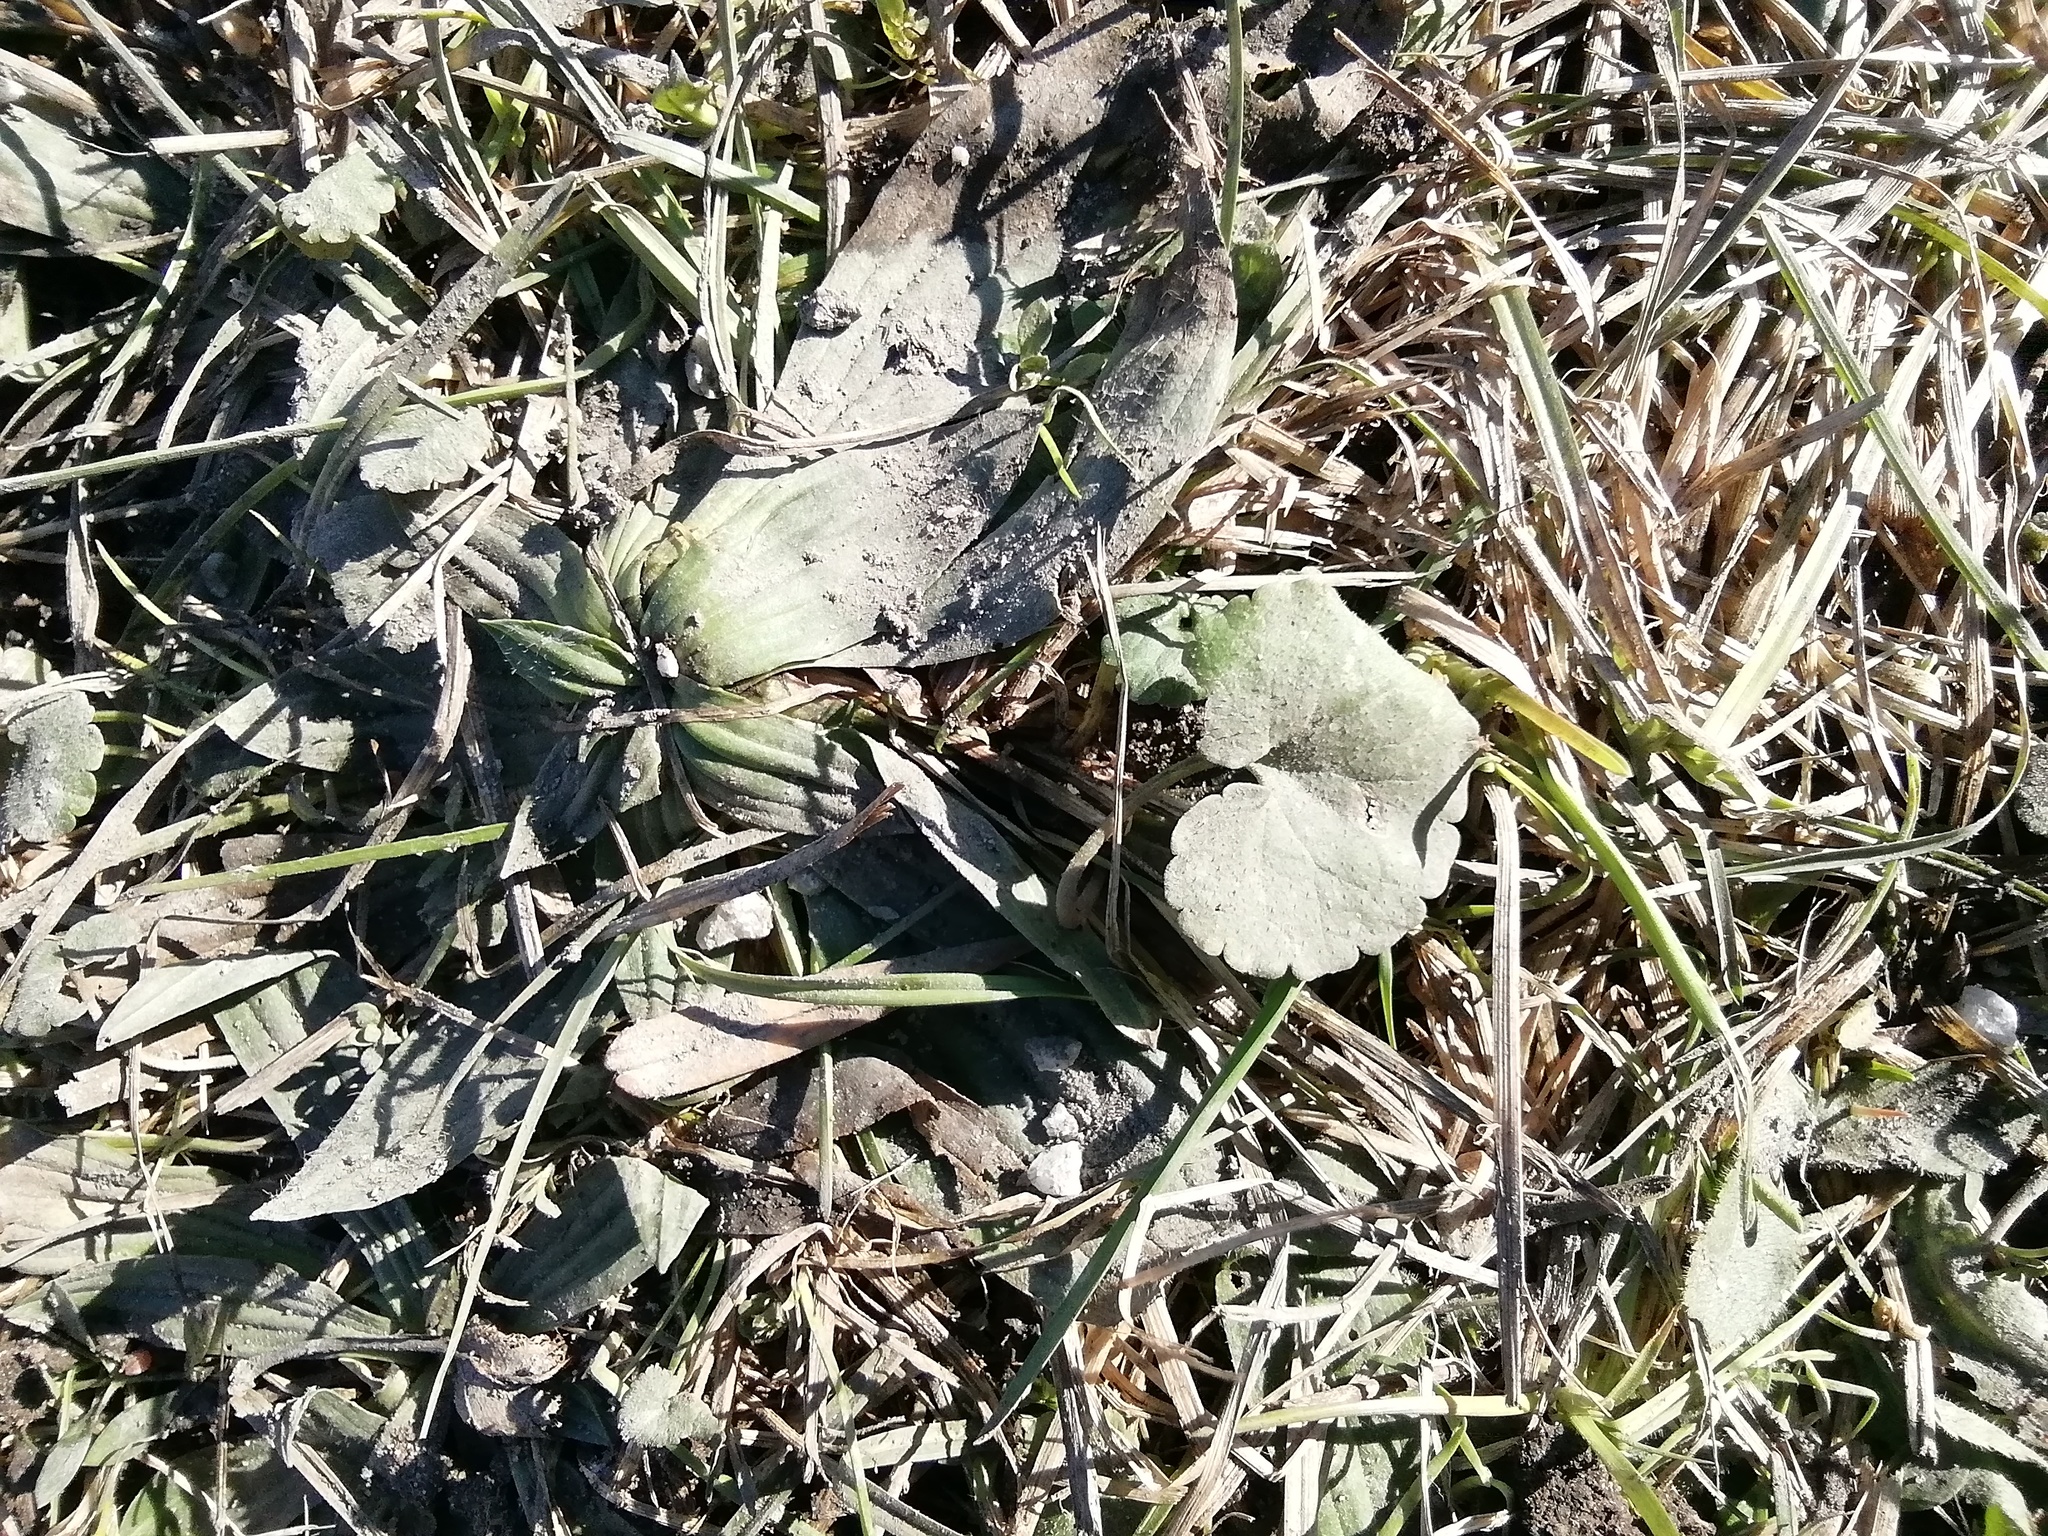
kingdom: Plantae
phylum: Tracheophyta
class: Magnoliopsida
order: Lamiales
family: Lamiaceae
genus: Glechoma
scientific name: Glechoma hederacea
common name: Ground ivy
